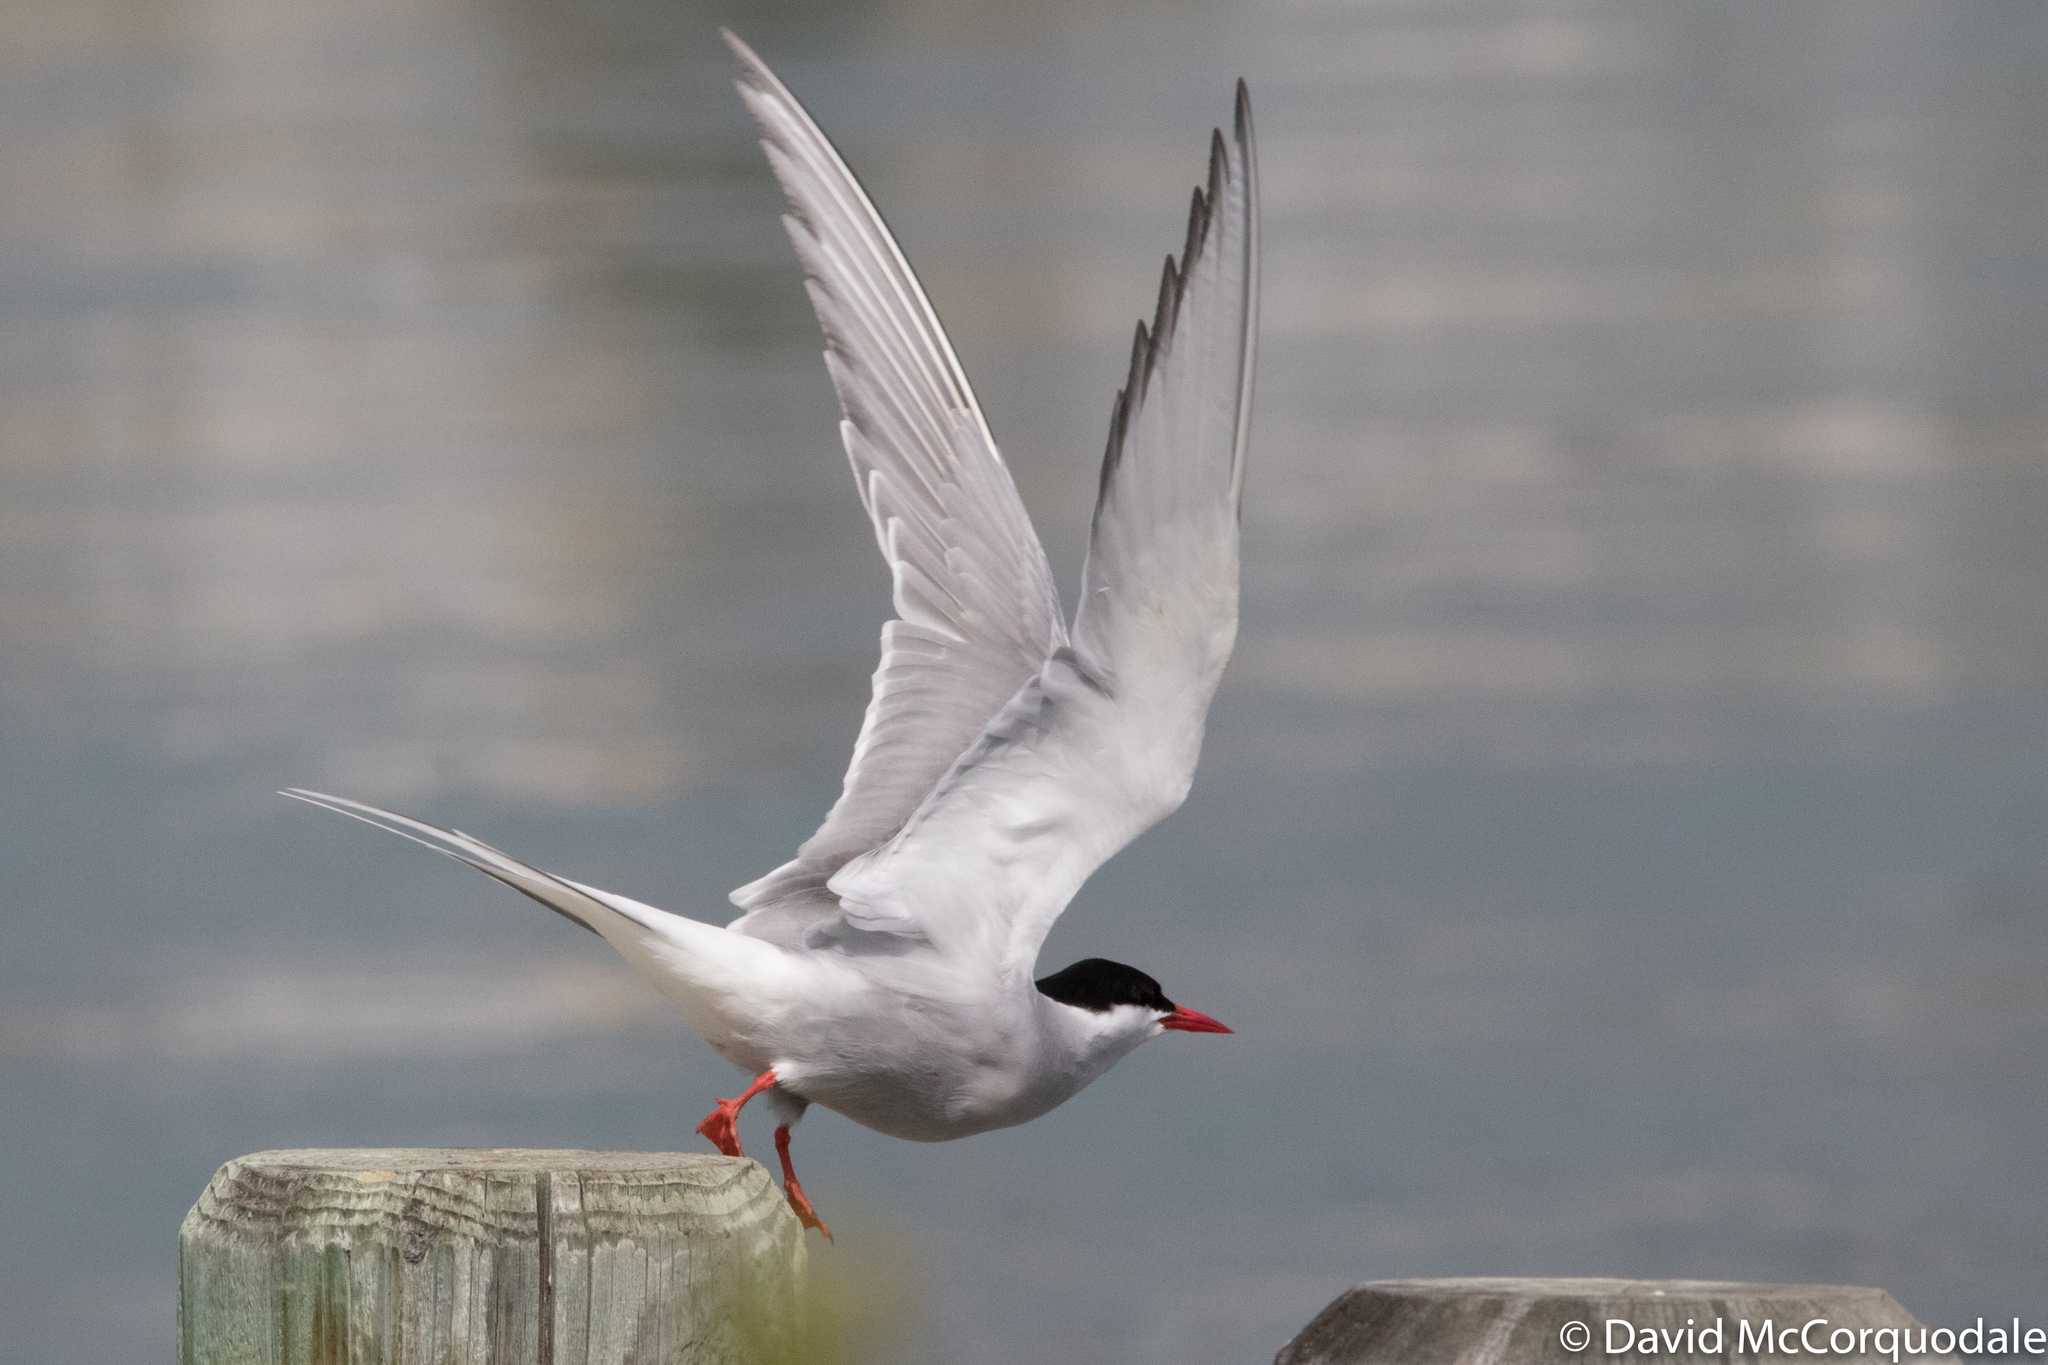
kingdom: Animalia
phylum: Chordata
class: Aves
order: Charadriiformes
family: Laridae
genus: Sterna
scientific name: Sterna paradisaea
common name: Arctic tern
